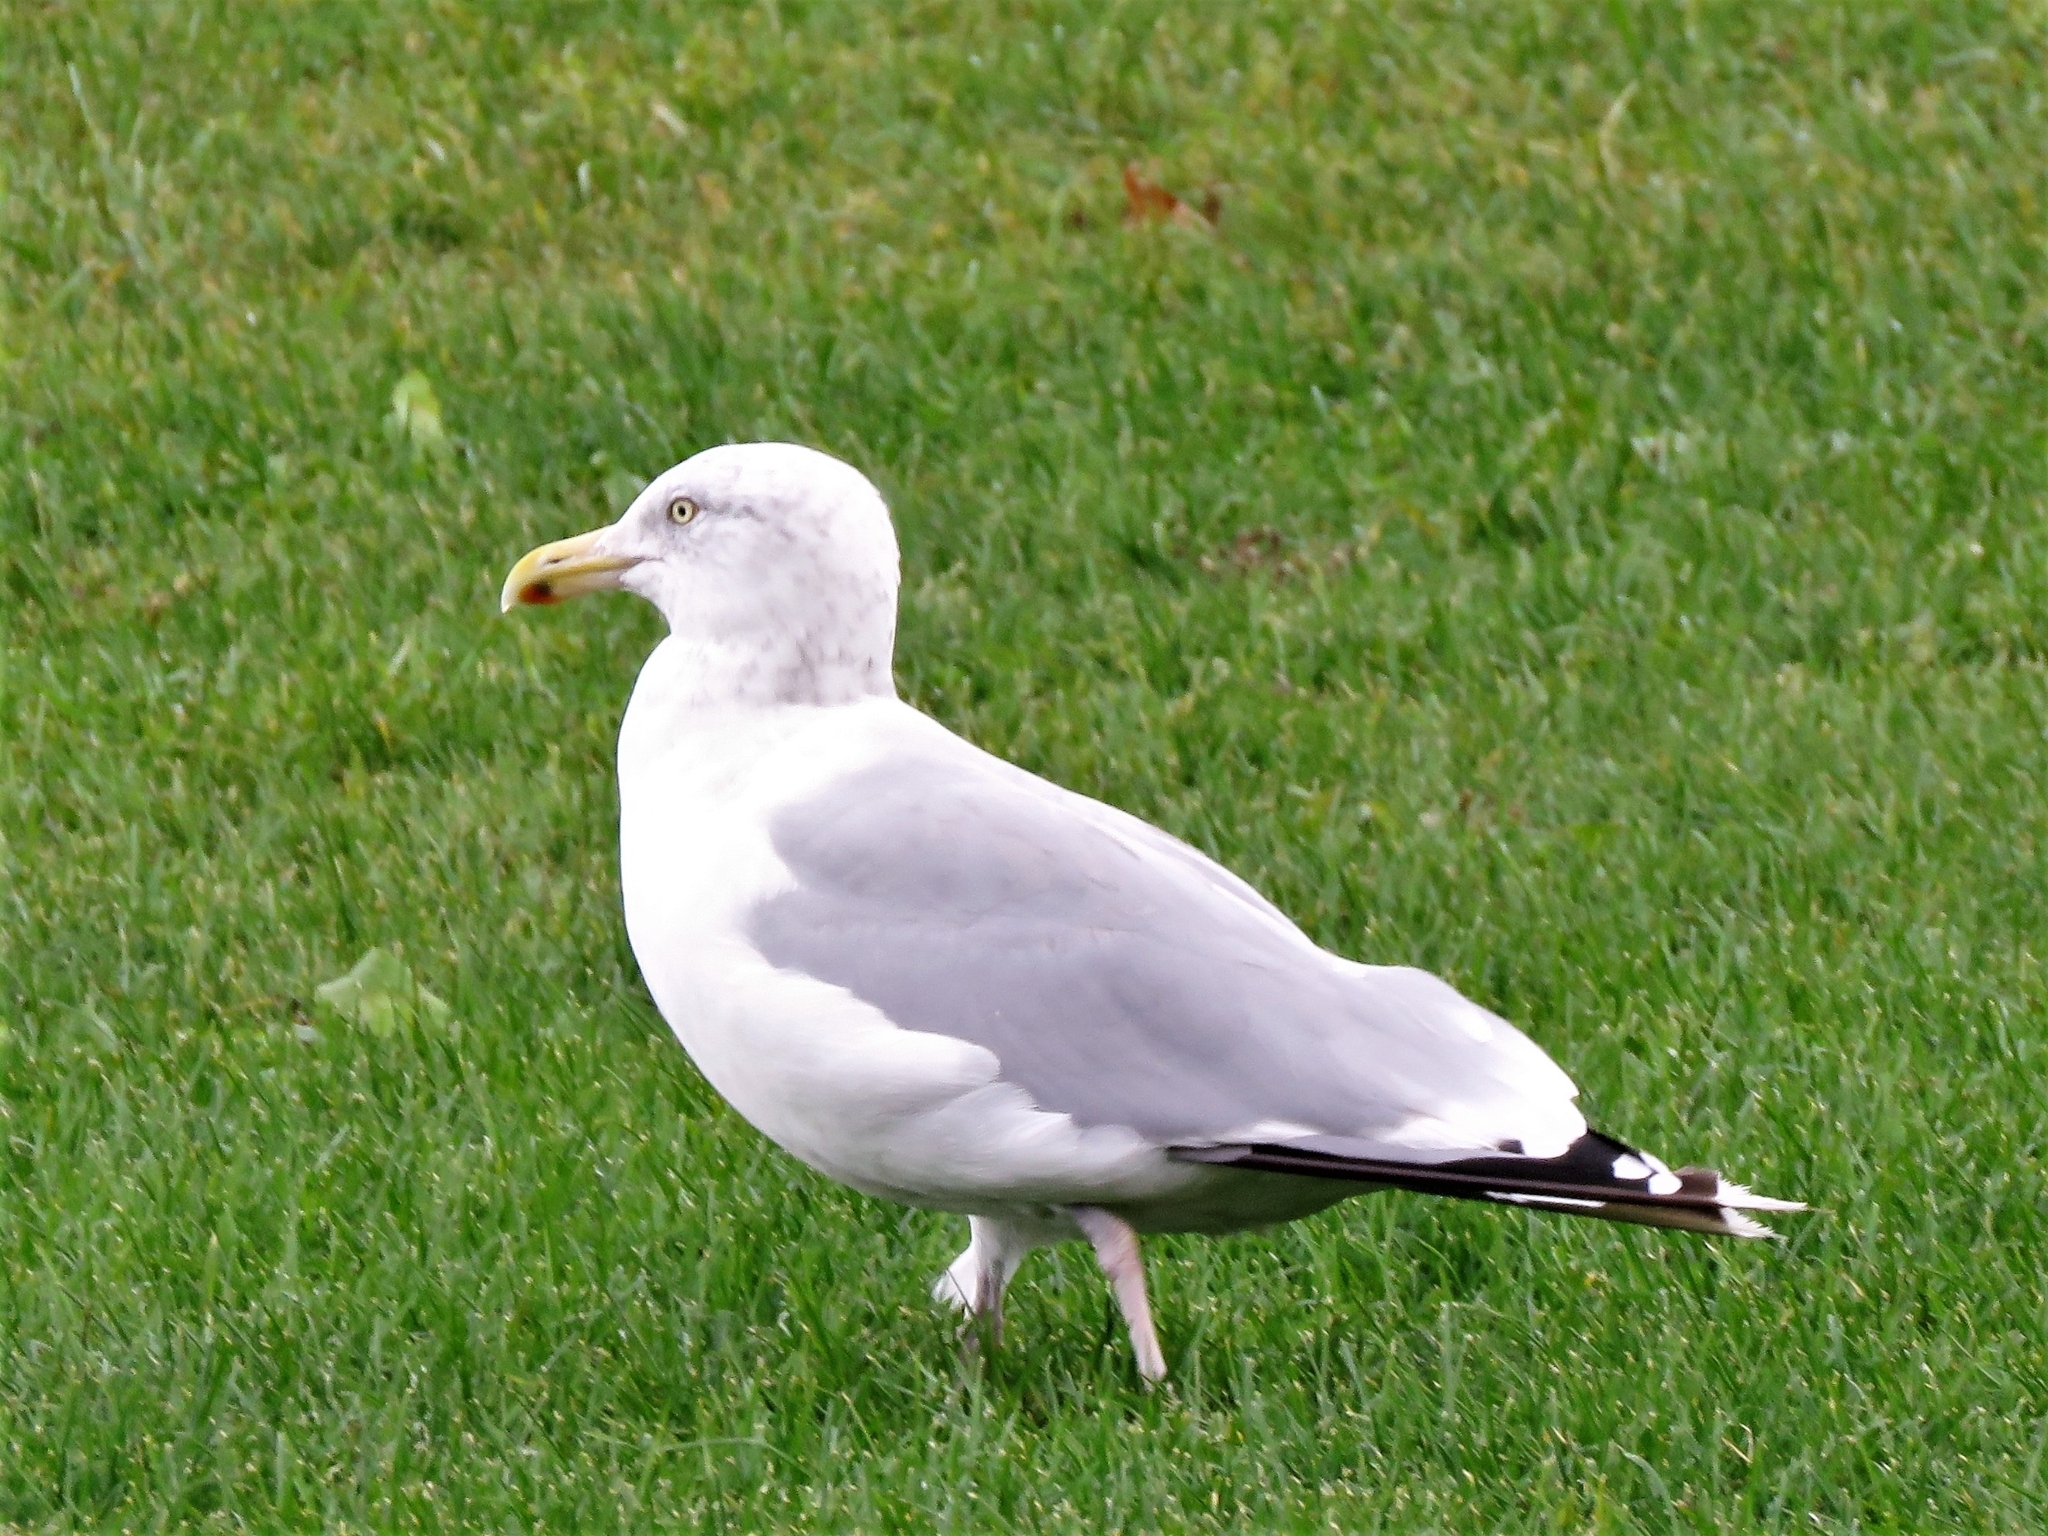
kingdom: Animalia
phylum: Chordata
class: Aves
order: Charadriiformes
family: Laridae
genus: Larus
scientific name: Larus argentatus
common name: Herring gull
